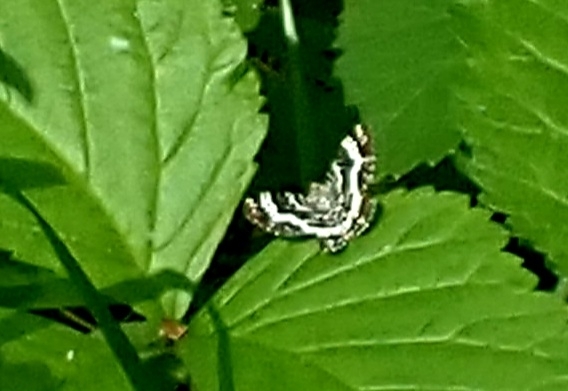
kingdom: Animalia
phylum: Arthropoda
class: Insecta
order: Lepidoptera
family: Geometridae
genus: Epirrhoe
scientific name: Epirrhoe tristata
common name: Small argent & sable
